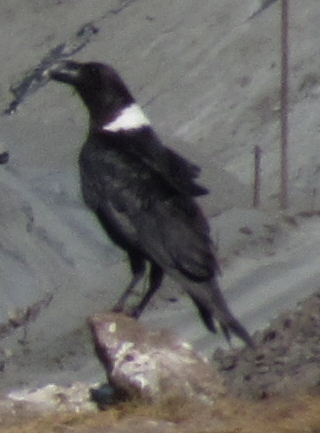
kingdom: Animalia
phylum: Chordata
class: Aves
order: Passeriformes
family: Corvidae
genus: Corvus
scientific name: Corvus albicollis
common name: White-necked raven
